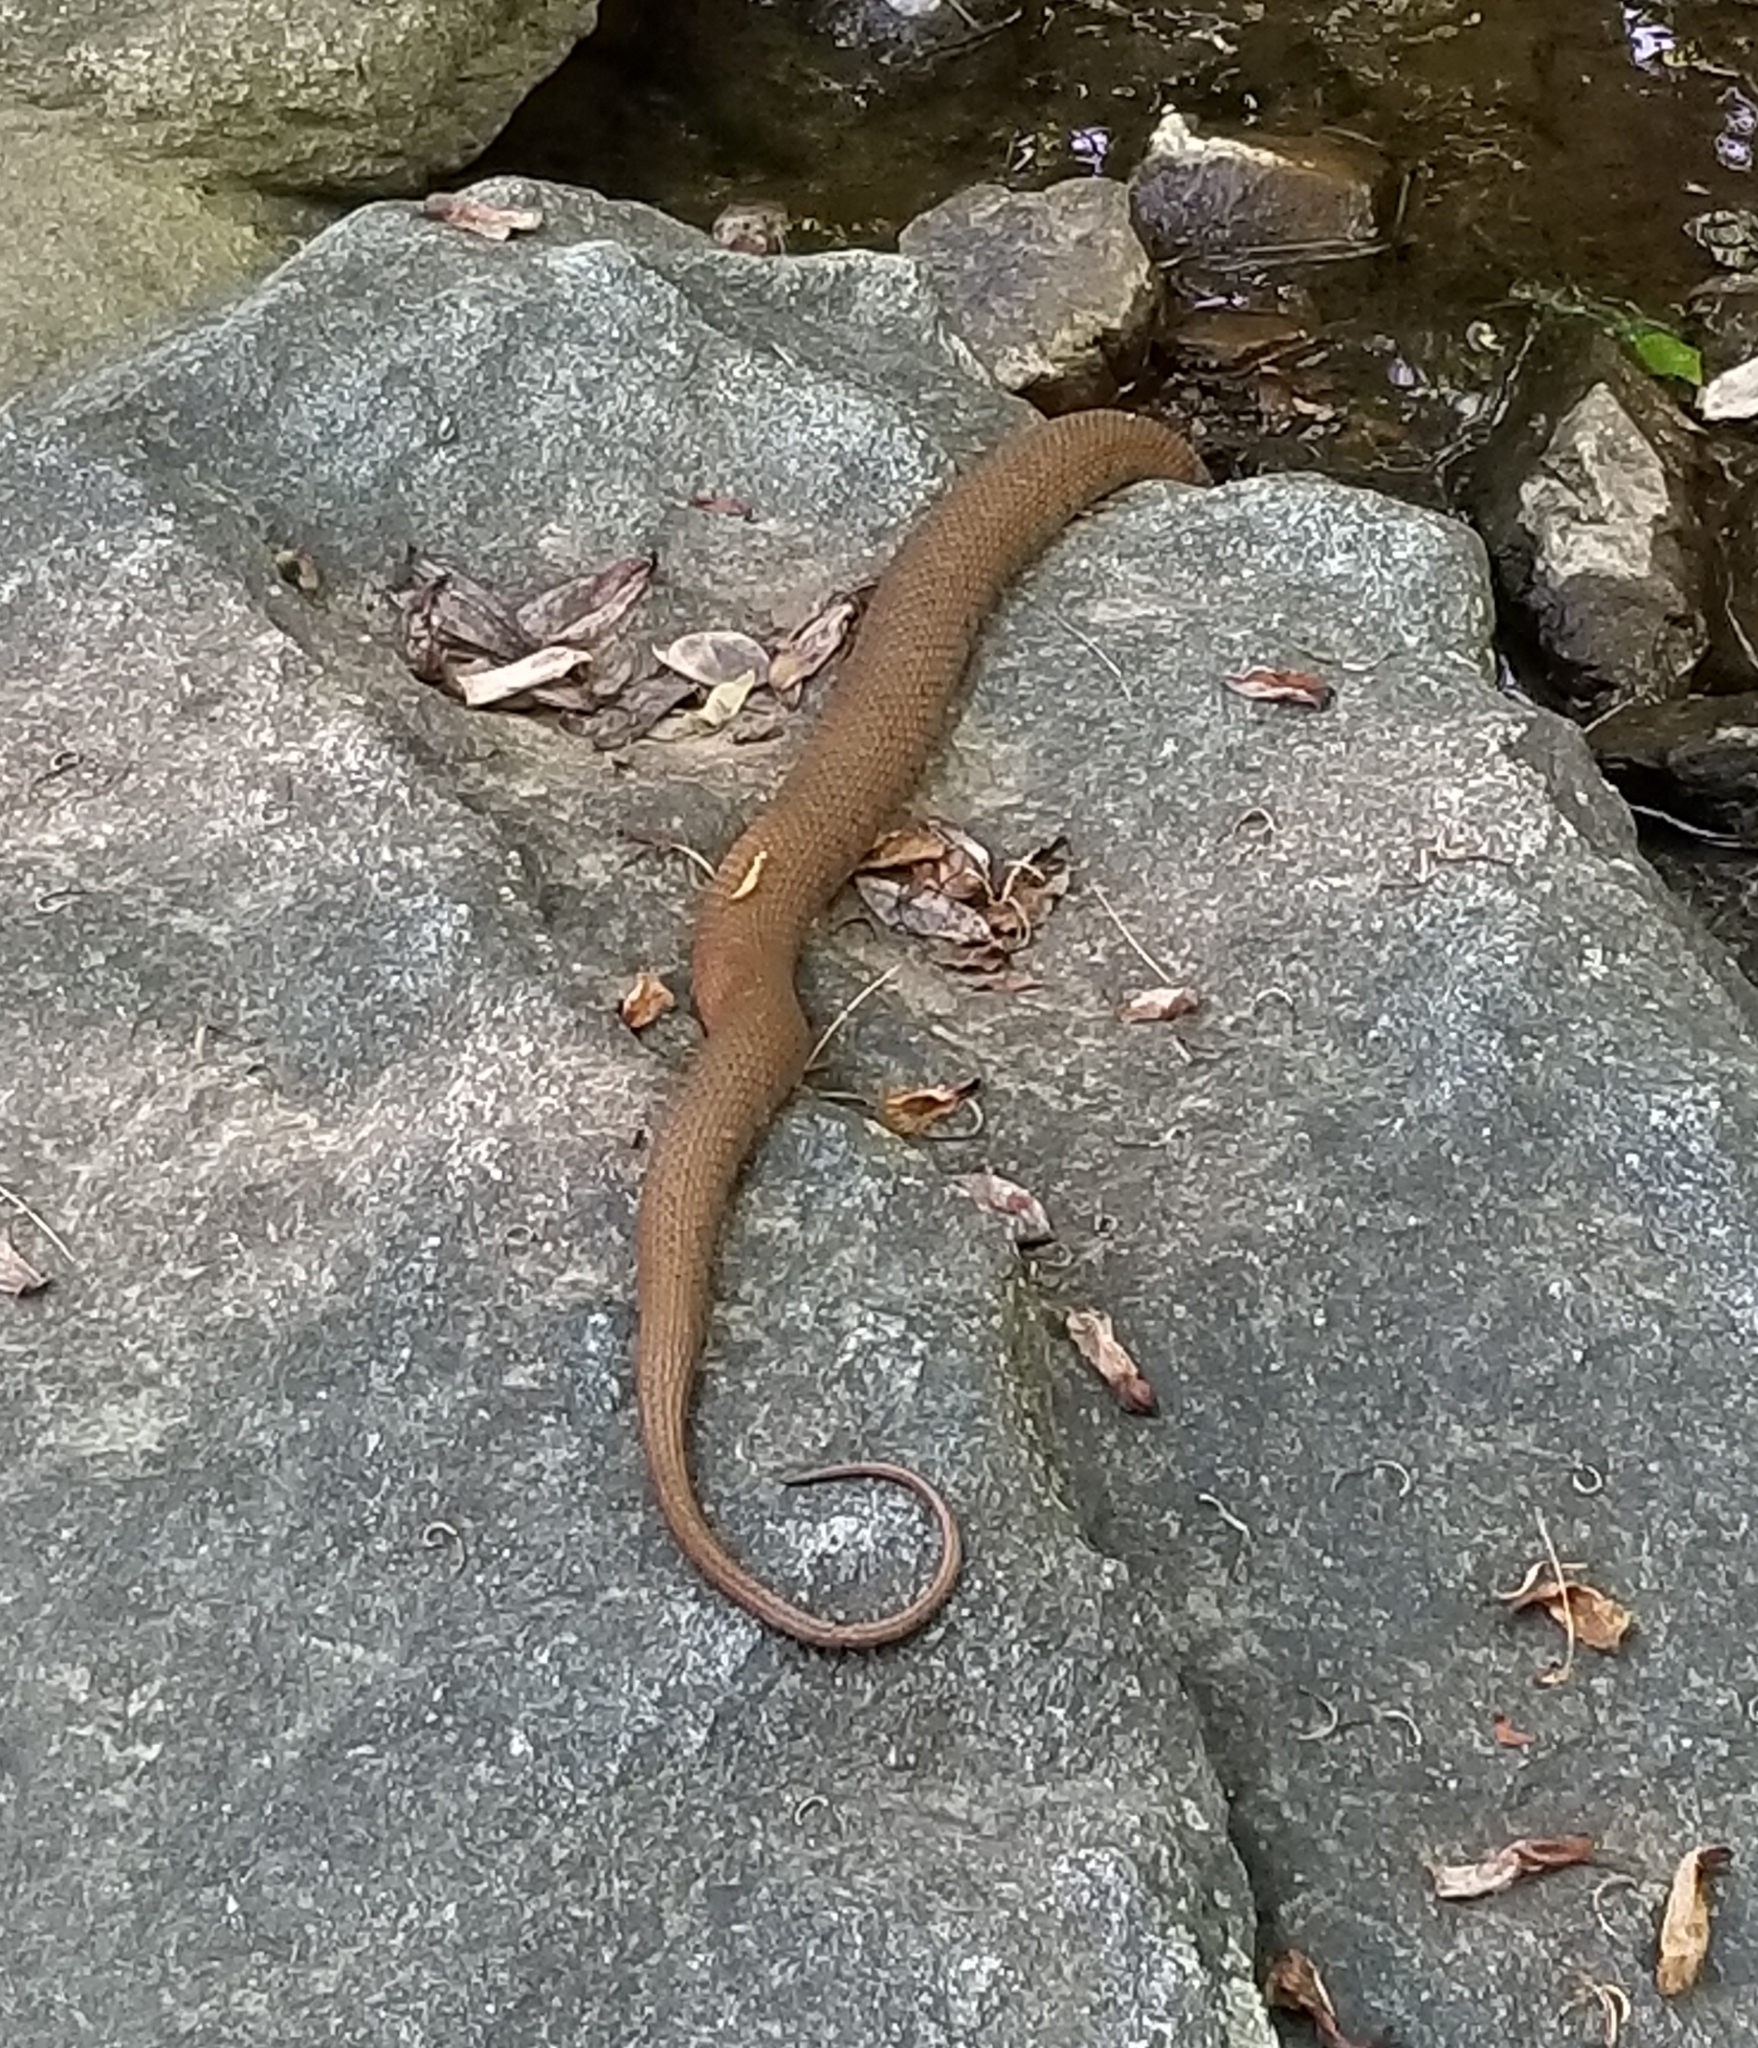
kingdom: Animalia
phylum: Chordata
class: Squamata
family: Colubridae
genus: Nerodia
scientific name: Nerodia sipedon
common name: Northern water snake
